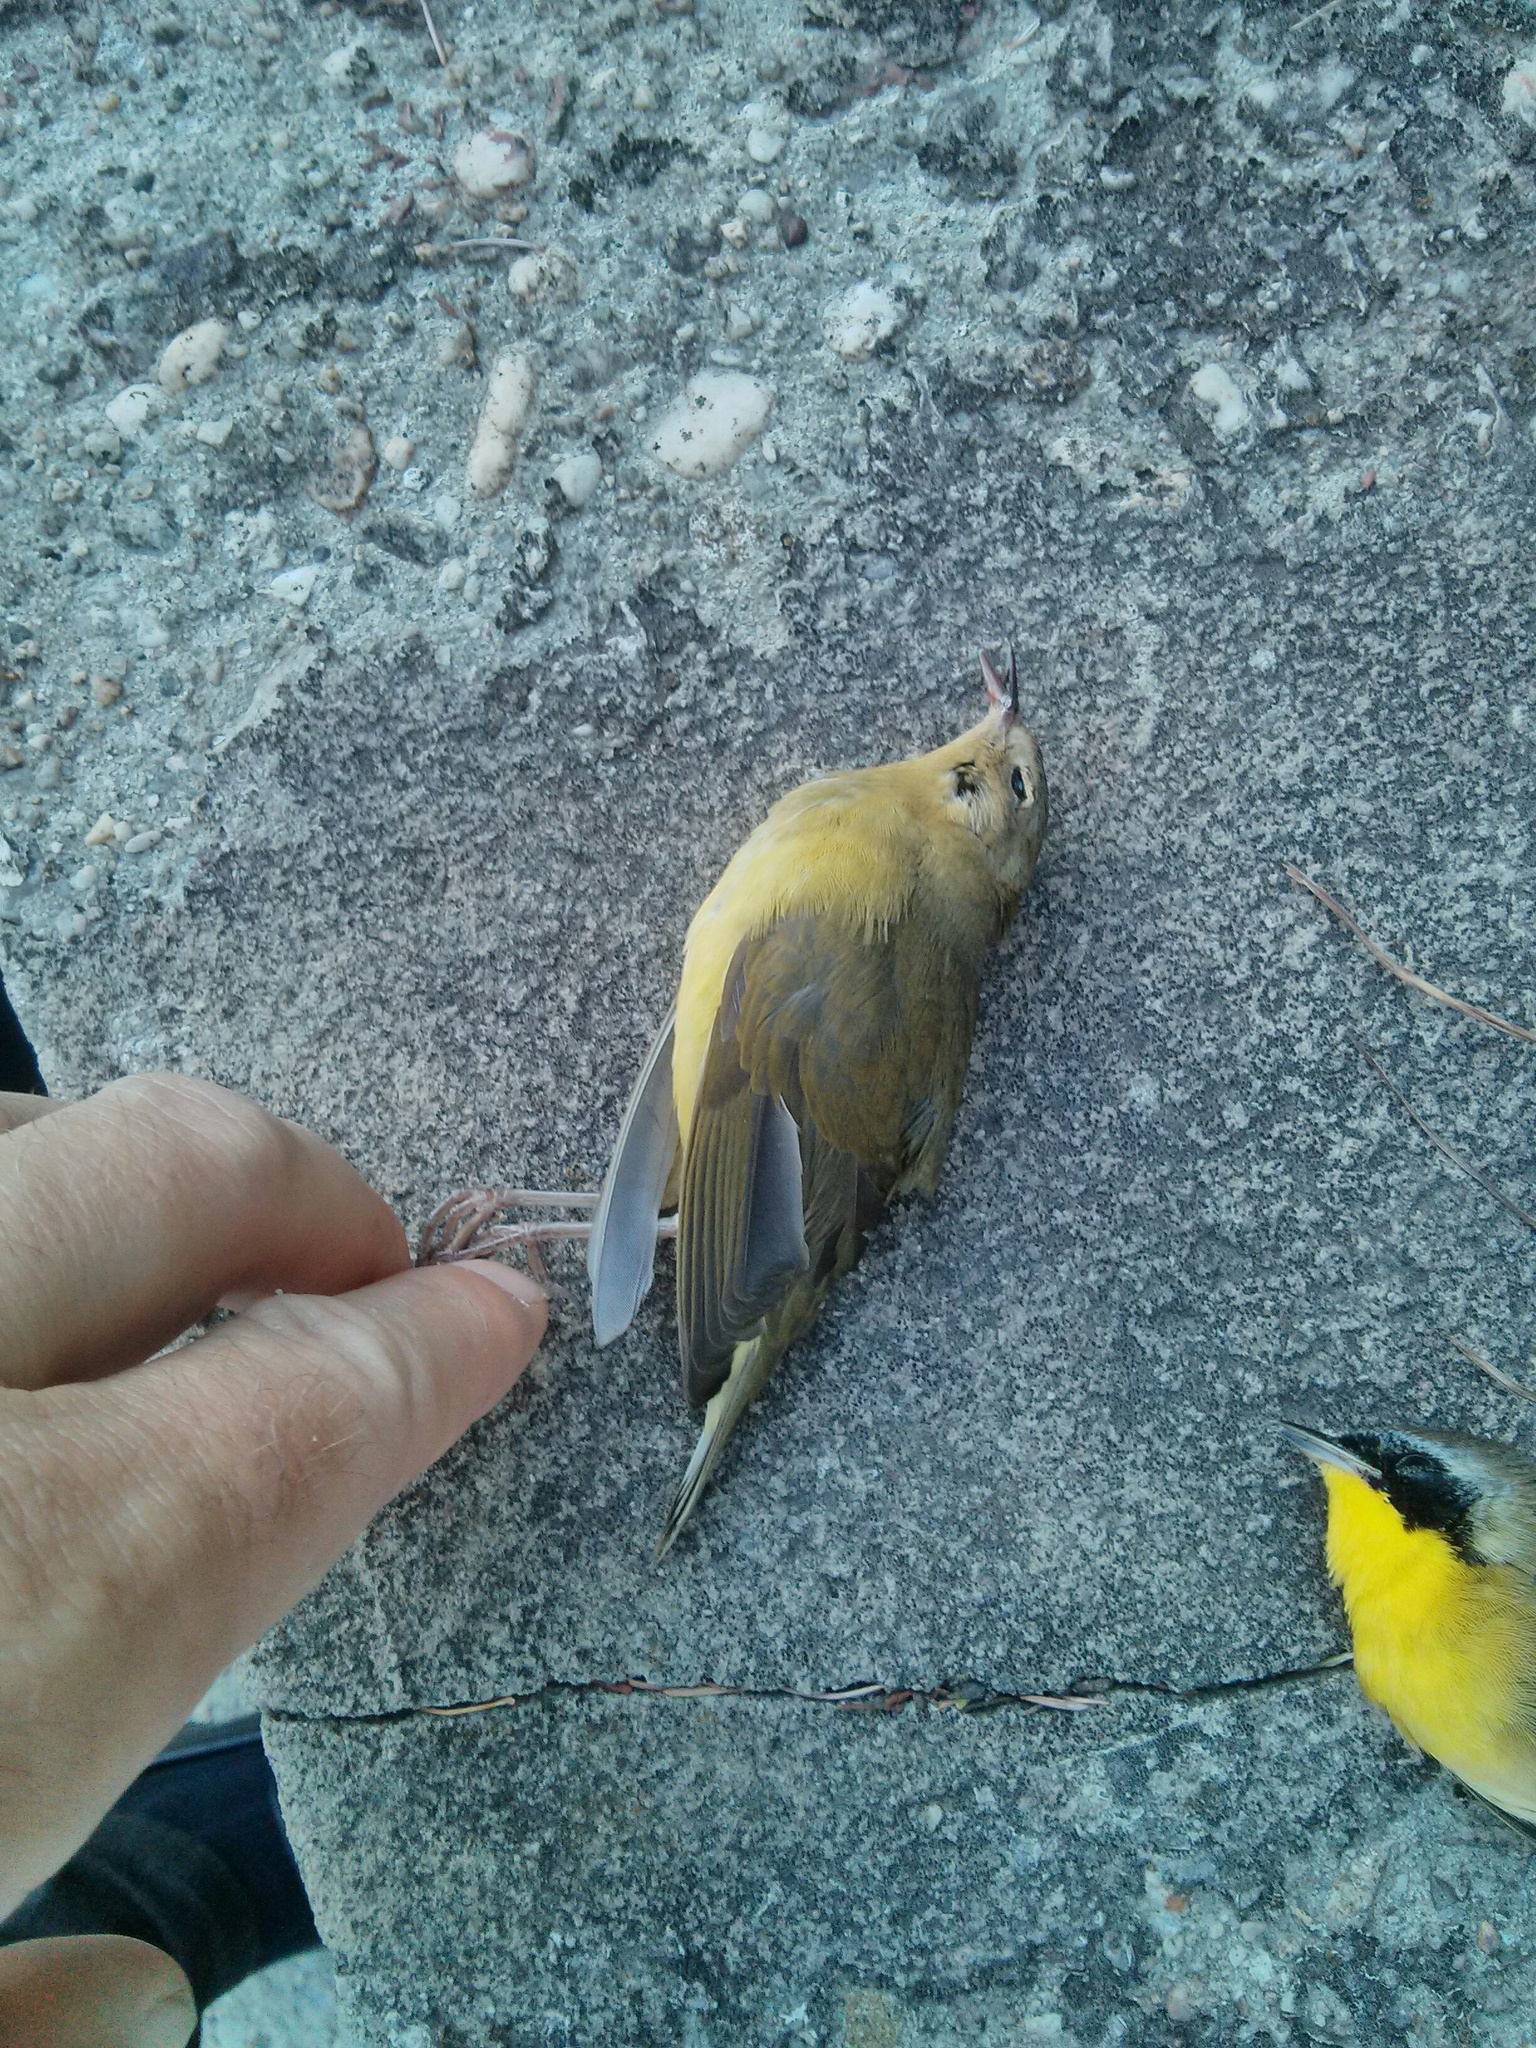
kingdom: Animalia
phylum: Chordata
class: Aves
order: Passeriformes
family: Parulidae
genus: Geothlypis
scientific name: Geothlypis trichas
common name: Common yellowthroat
